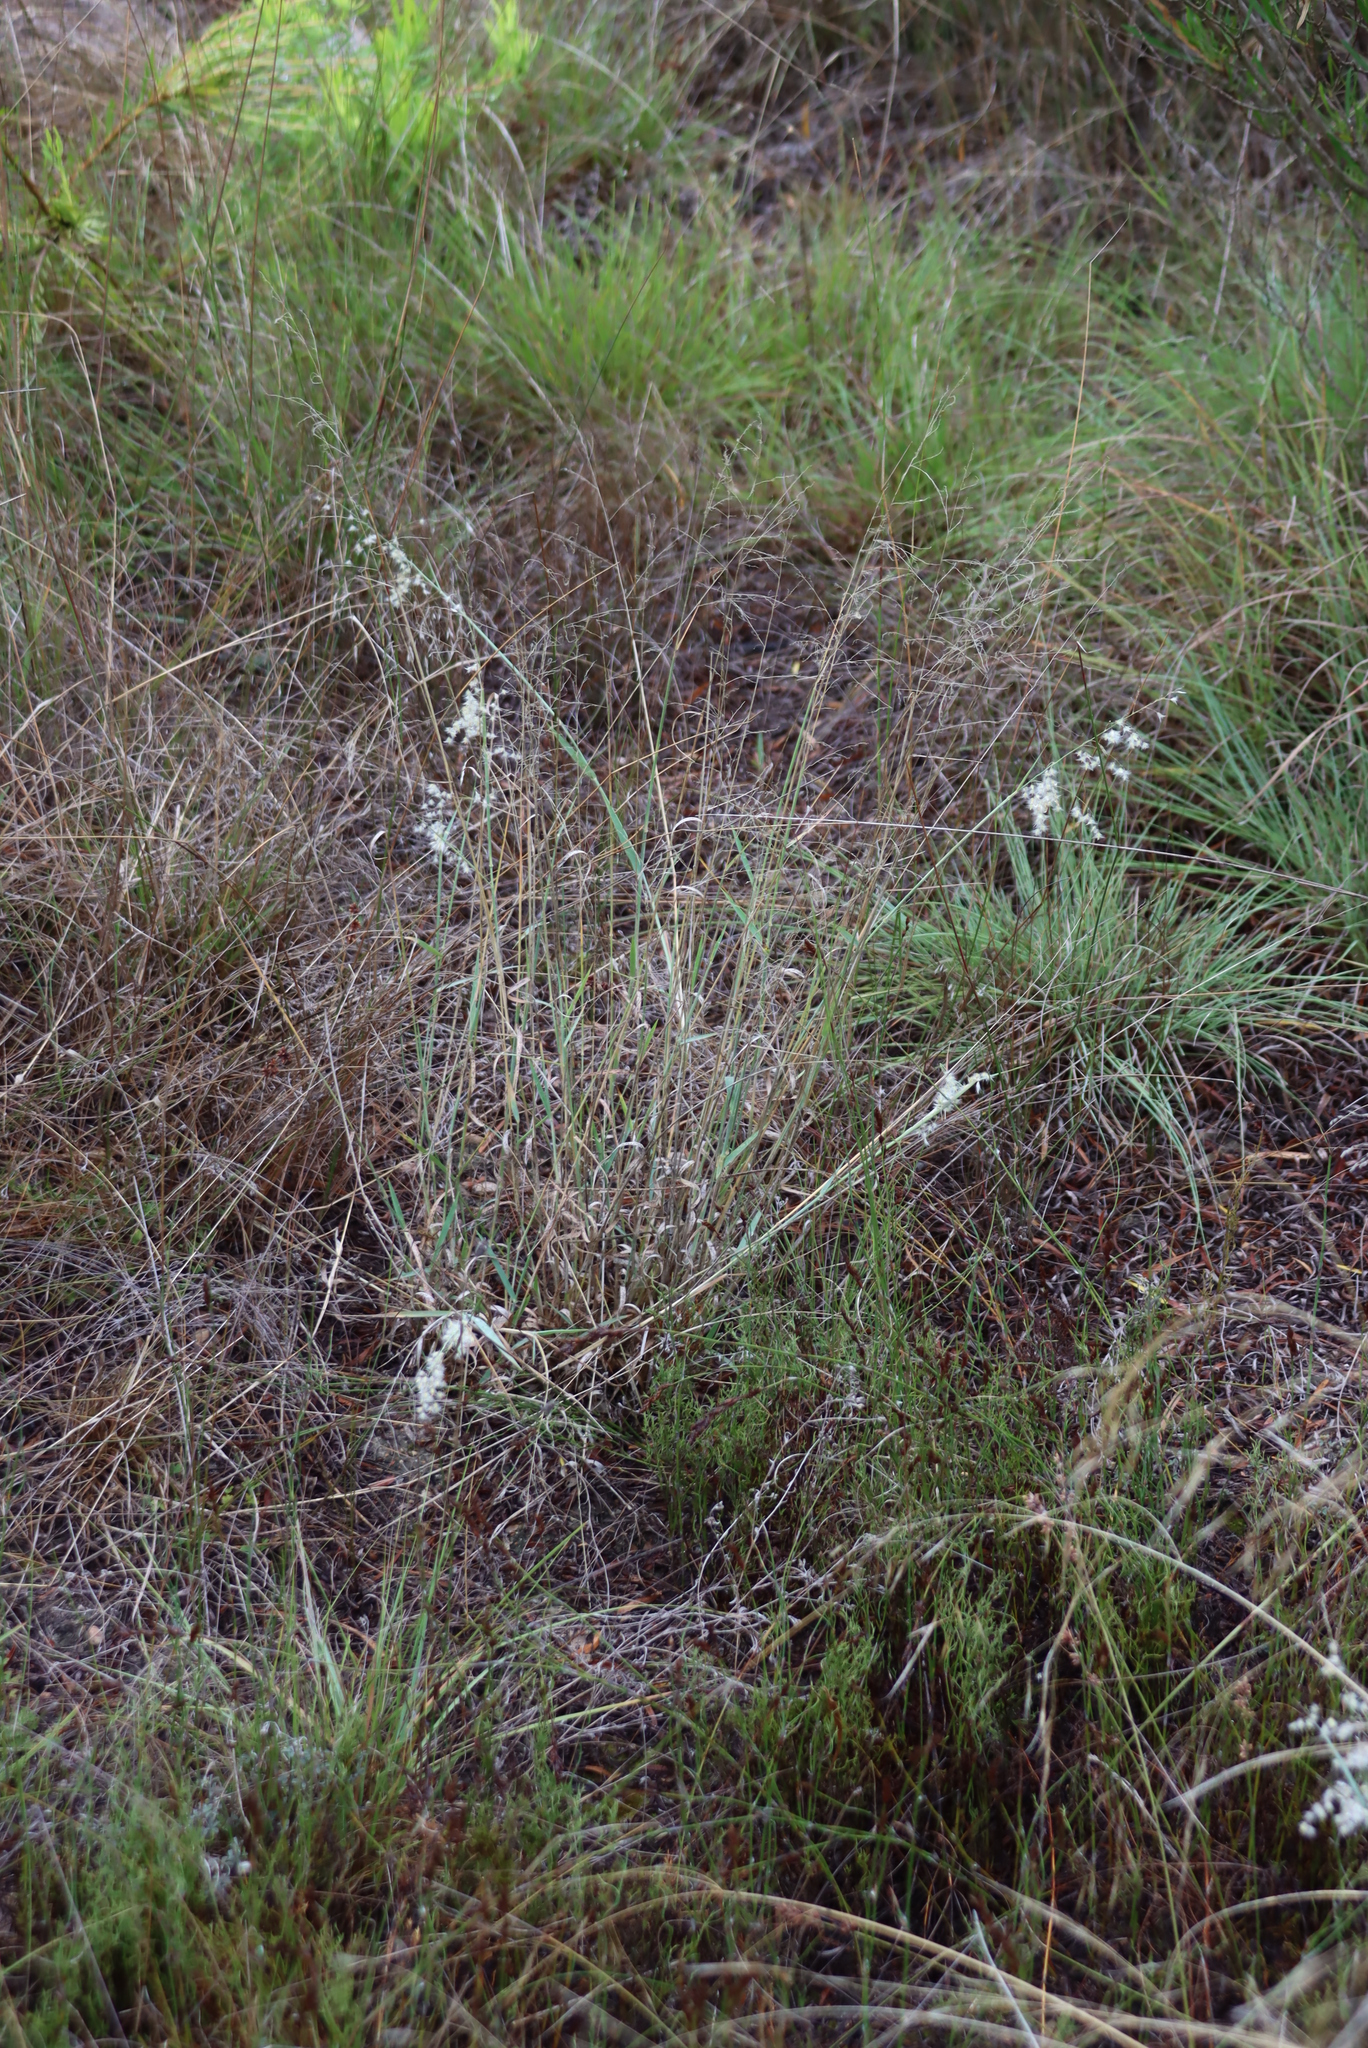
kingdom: Plantae
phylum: Tracheophyta
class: Liliopsida
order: Poales
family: Poaceae
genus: Melinis
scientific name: Melinis repens
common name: Rose natal grass
